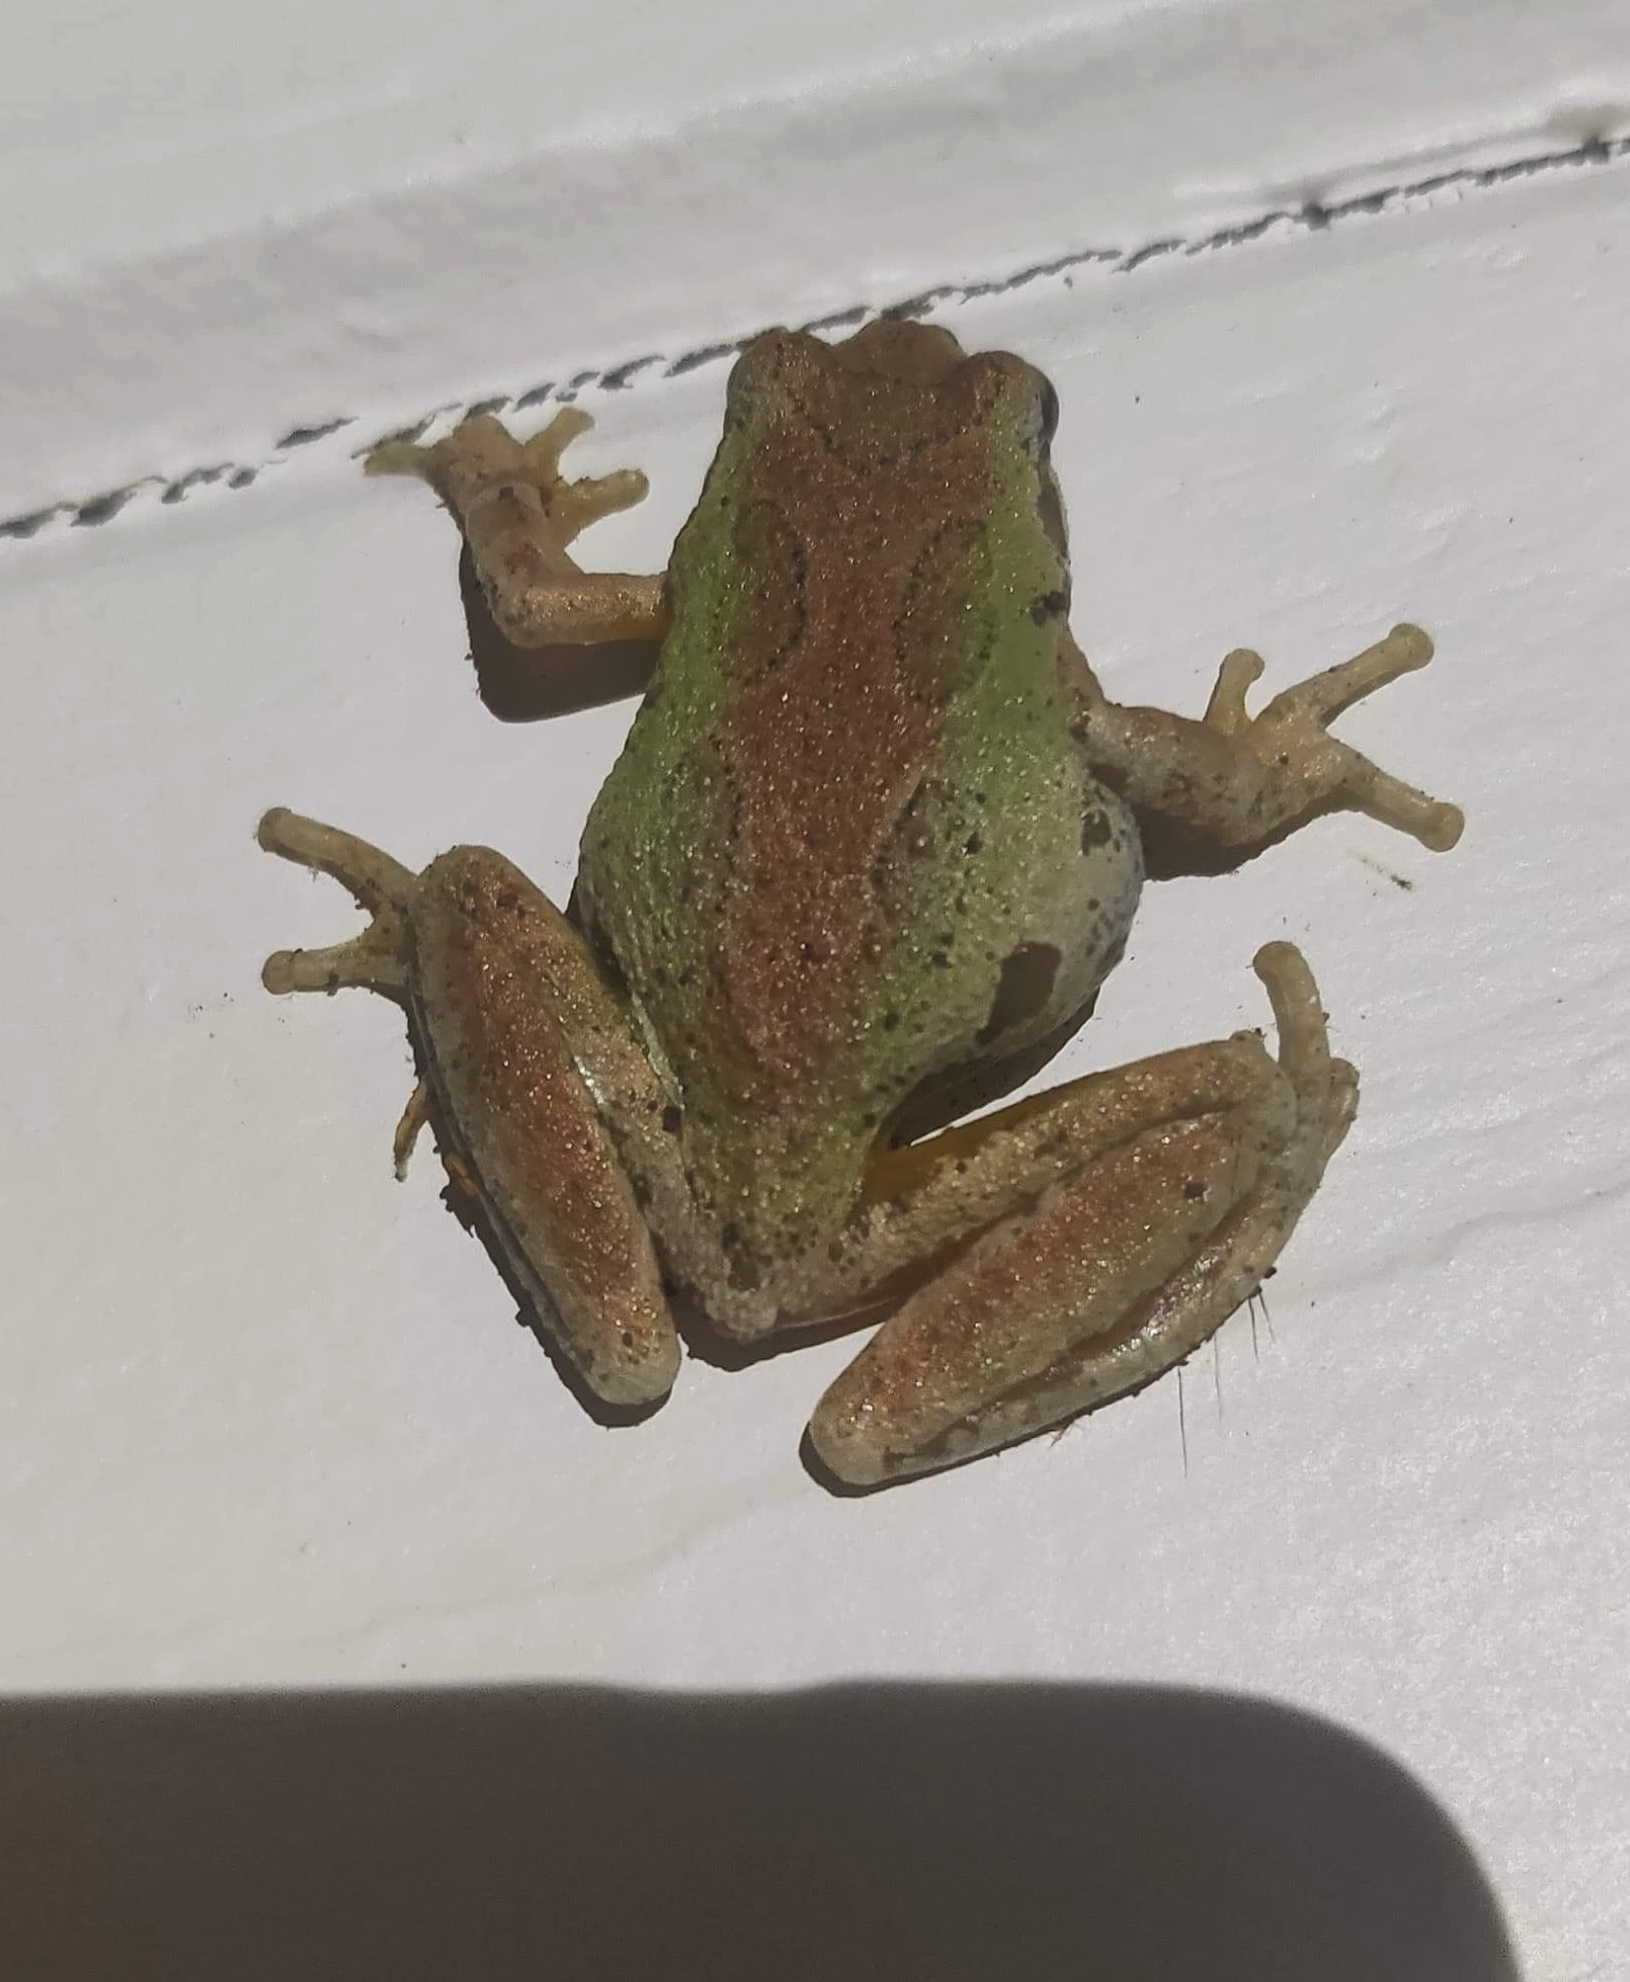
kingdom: Animalia
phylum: Chordata
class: Amphibia
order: Anura
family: Hylidae
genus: Pseudacris
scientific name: Pseudacris regilla
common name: Pacific chorus frog
